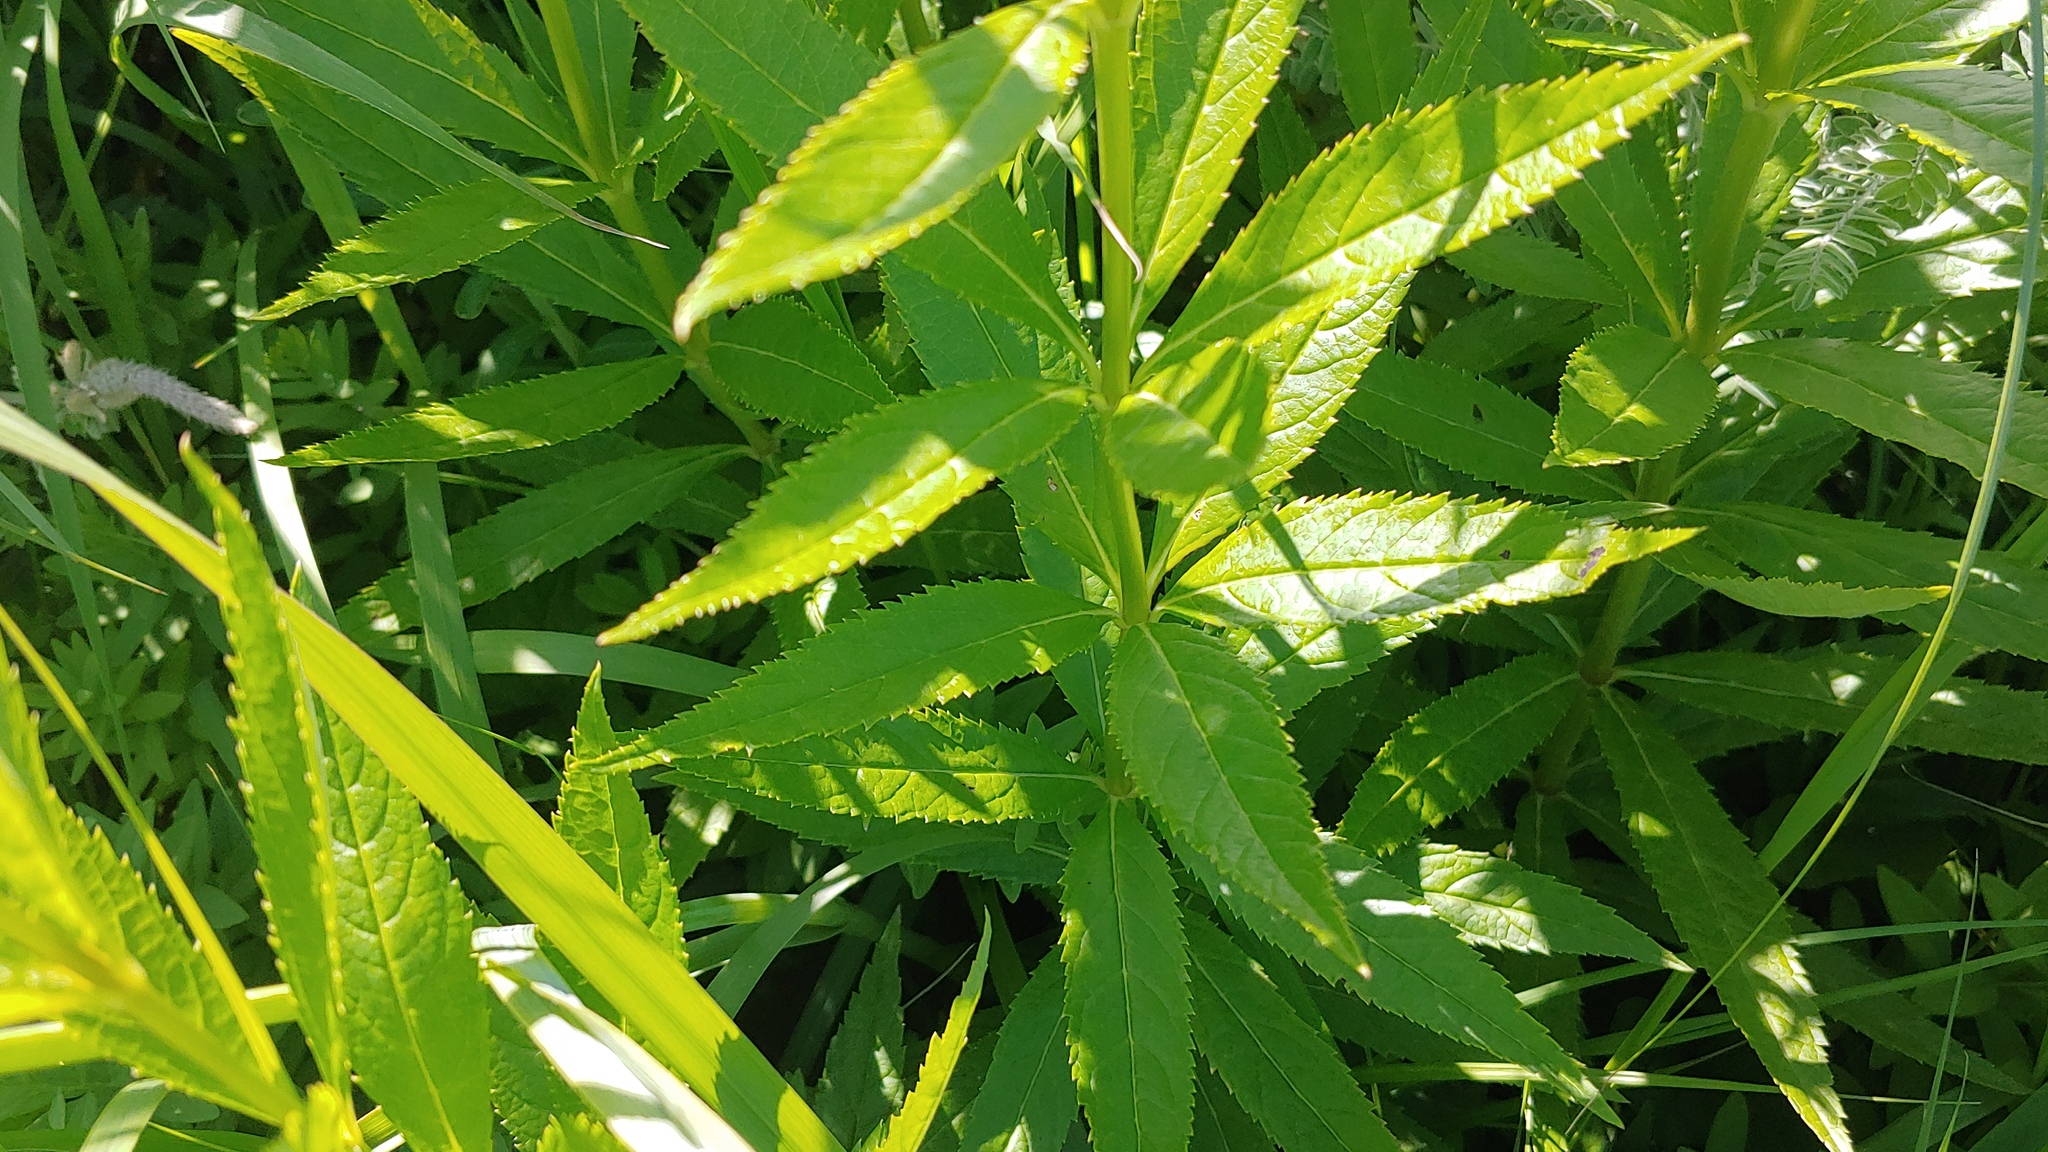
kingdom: Plantae
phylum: Tracheophyta
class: Magnoliopsida
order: Lamiales
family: Plantaginaceae
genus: Veronicastrum
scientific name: Veronicastrum virginicum
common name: Blackroot
